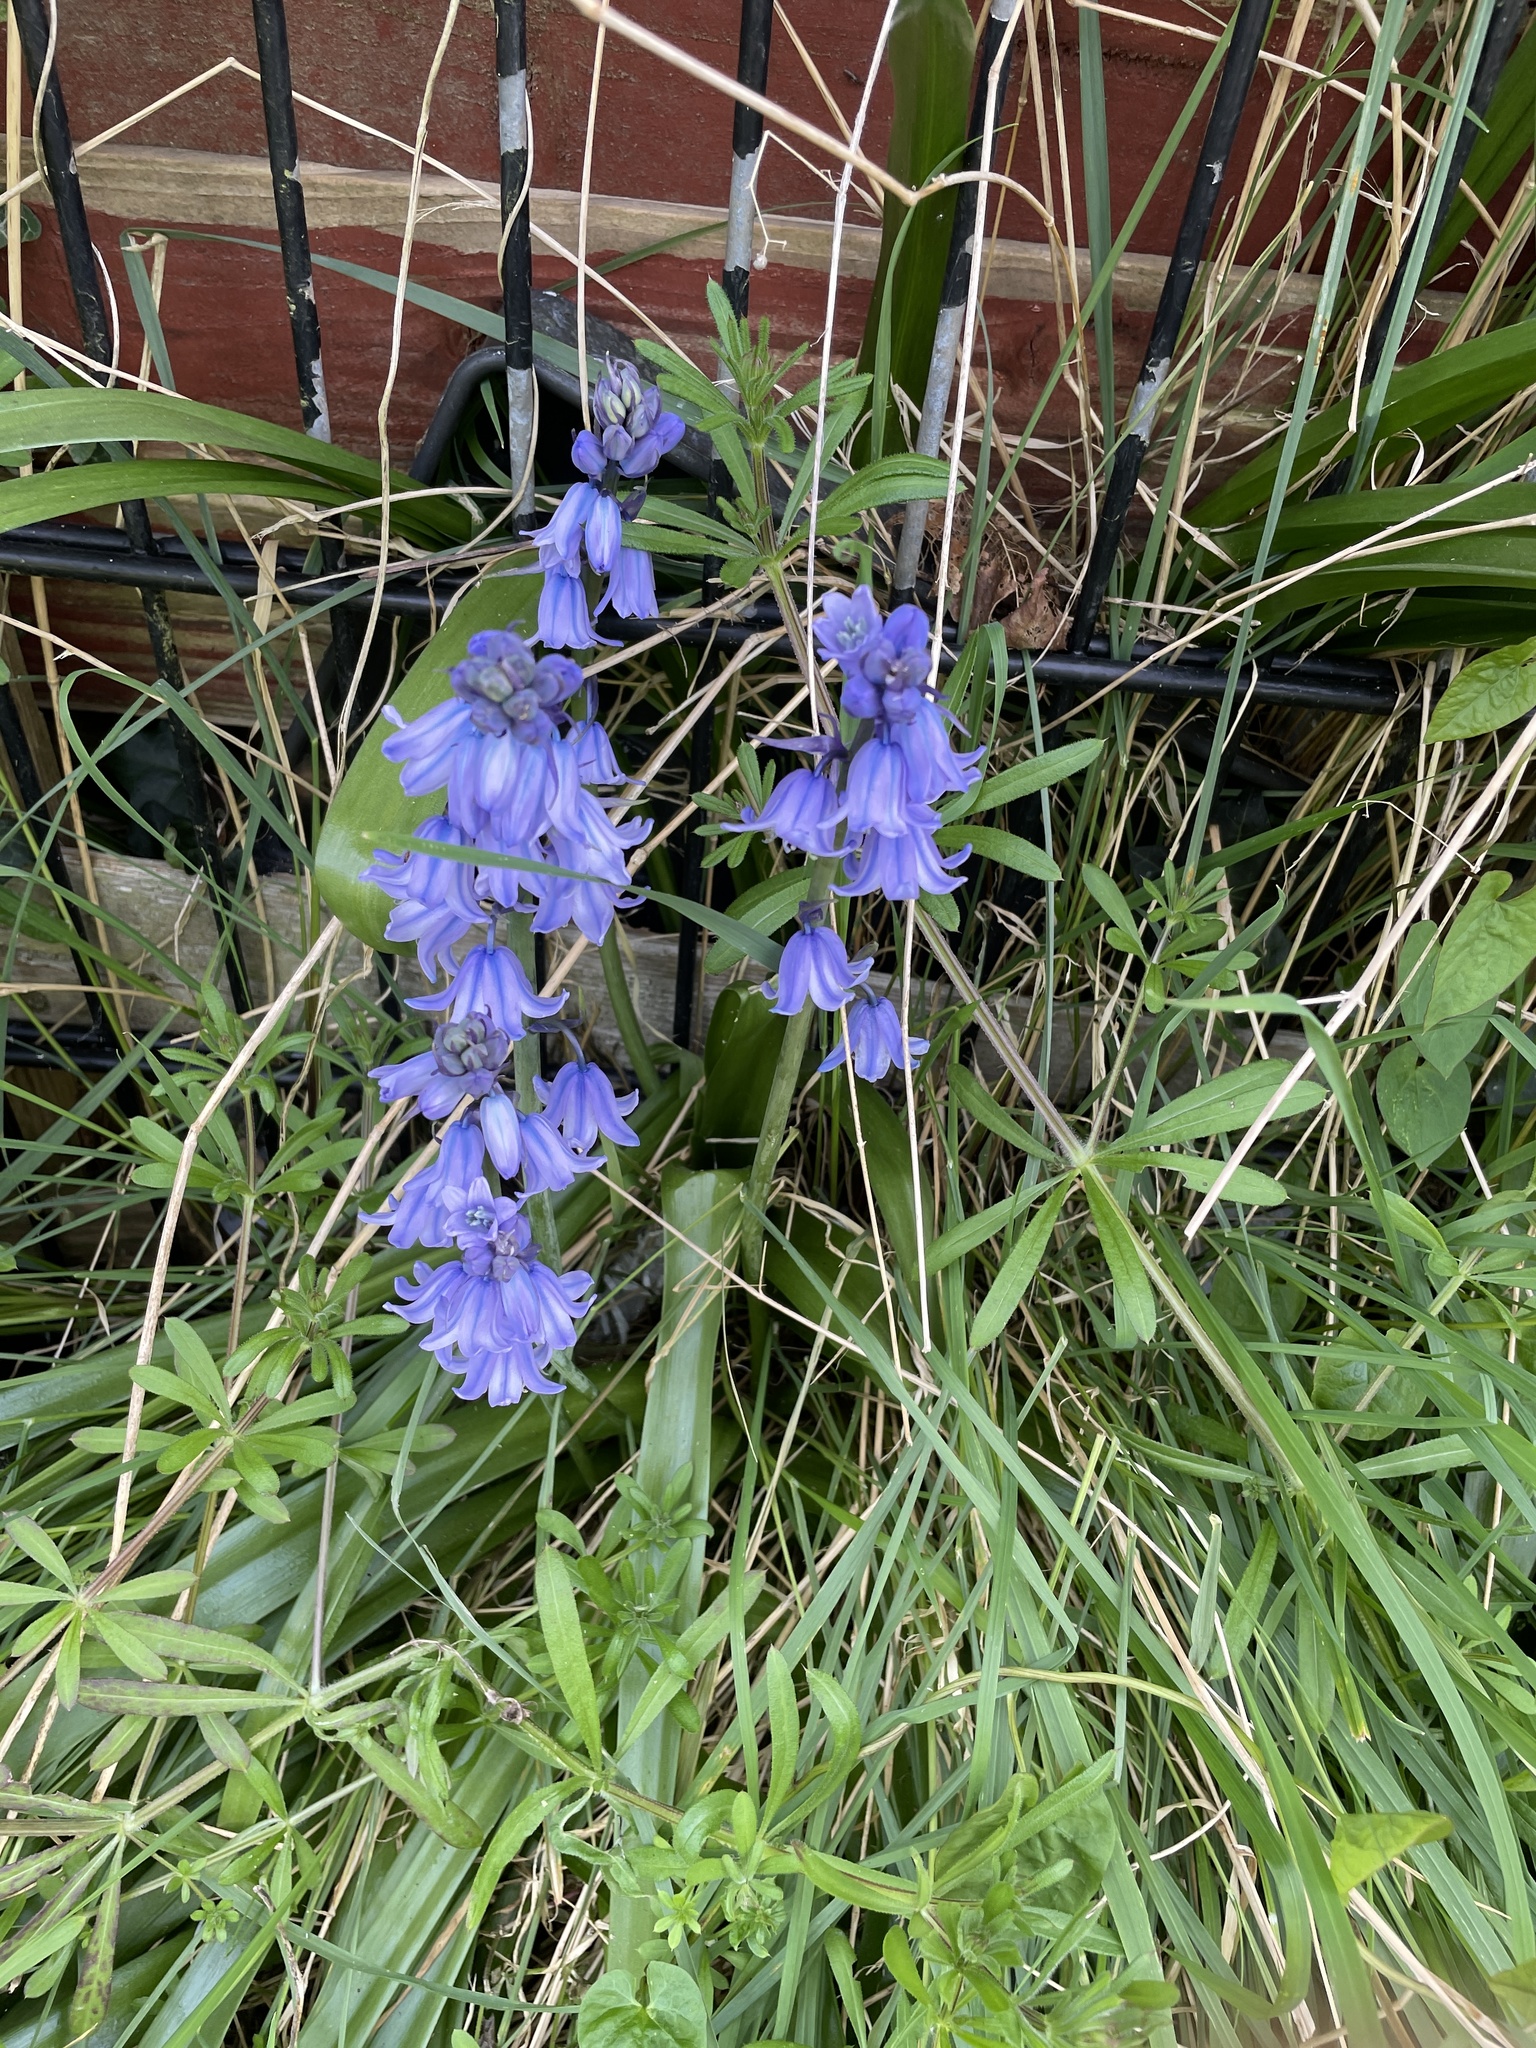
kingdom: Plantae
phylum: Tracheophyta
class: Liliopsida
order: Asparagales
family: Asparagaceae
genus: Hyacinthoides
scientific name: Hyacinthoides hispanica
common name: Spanish bluebell
